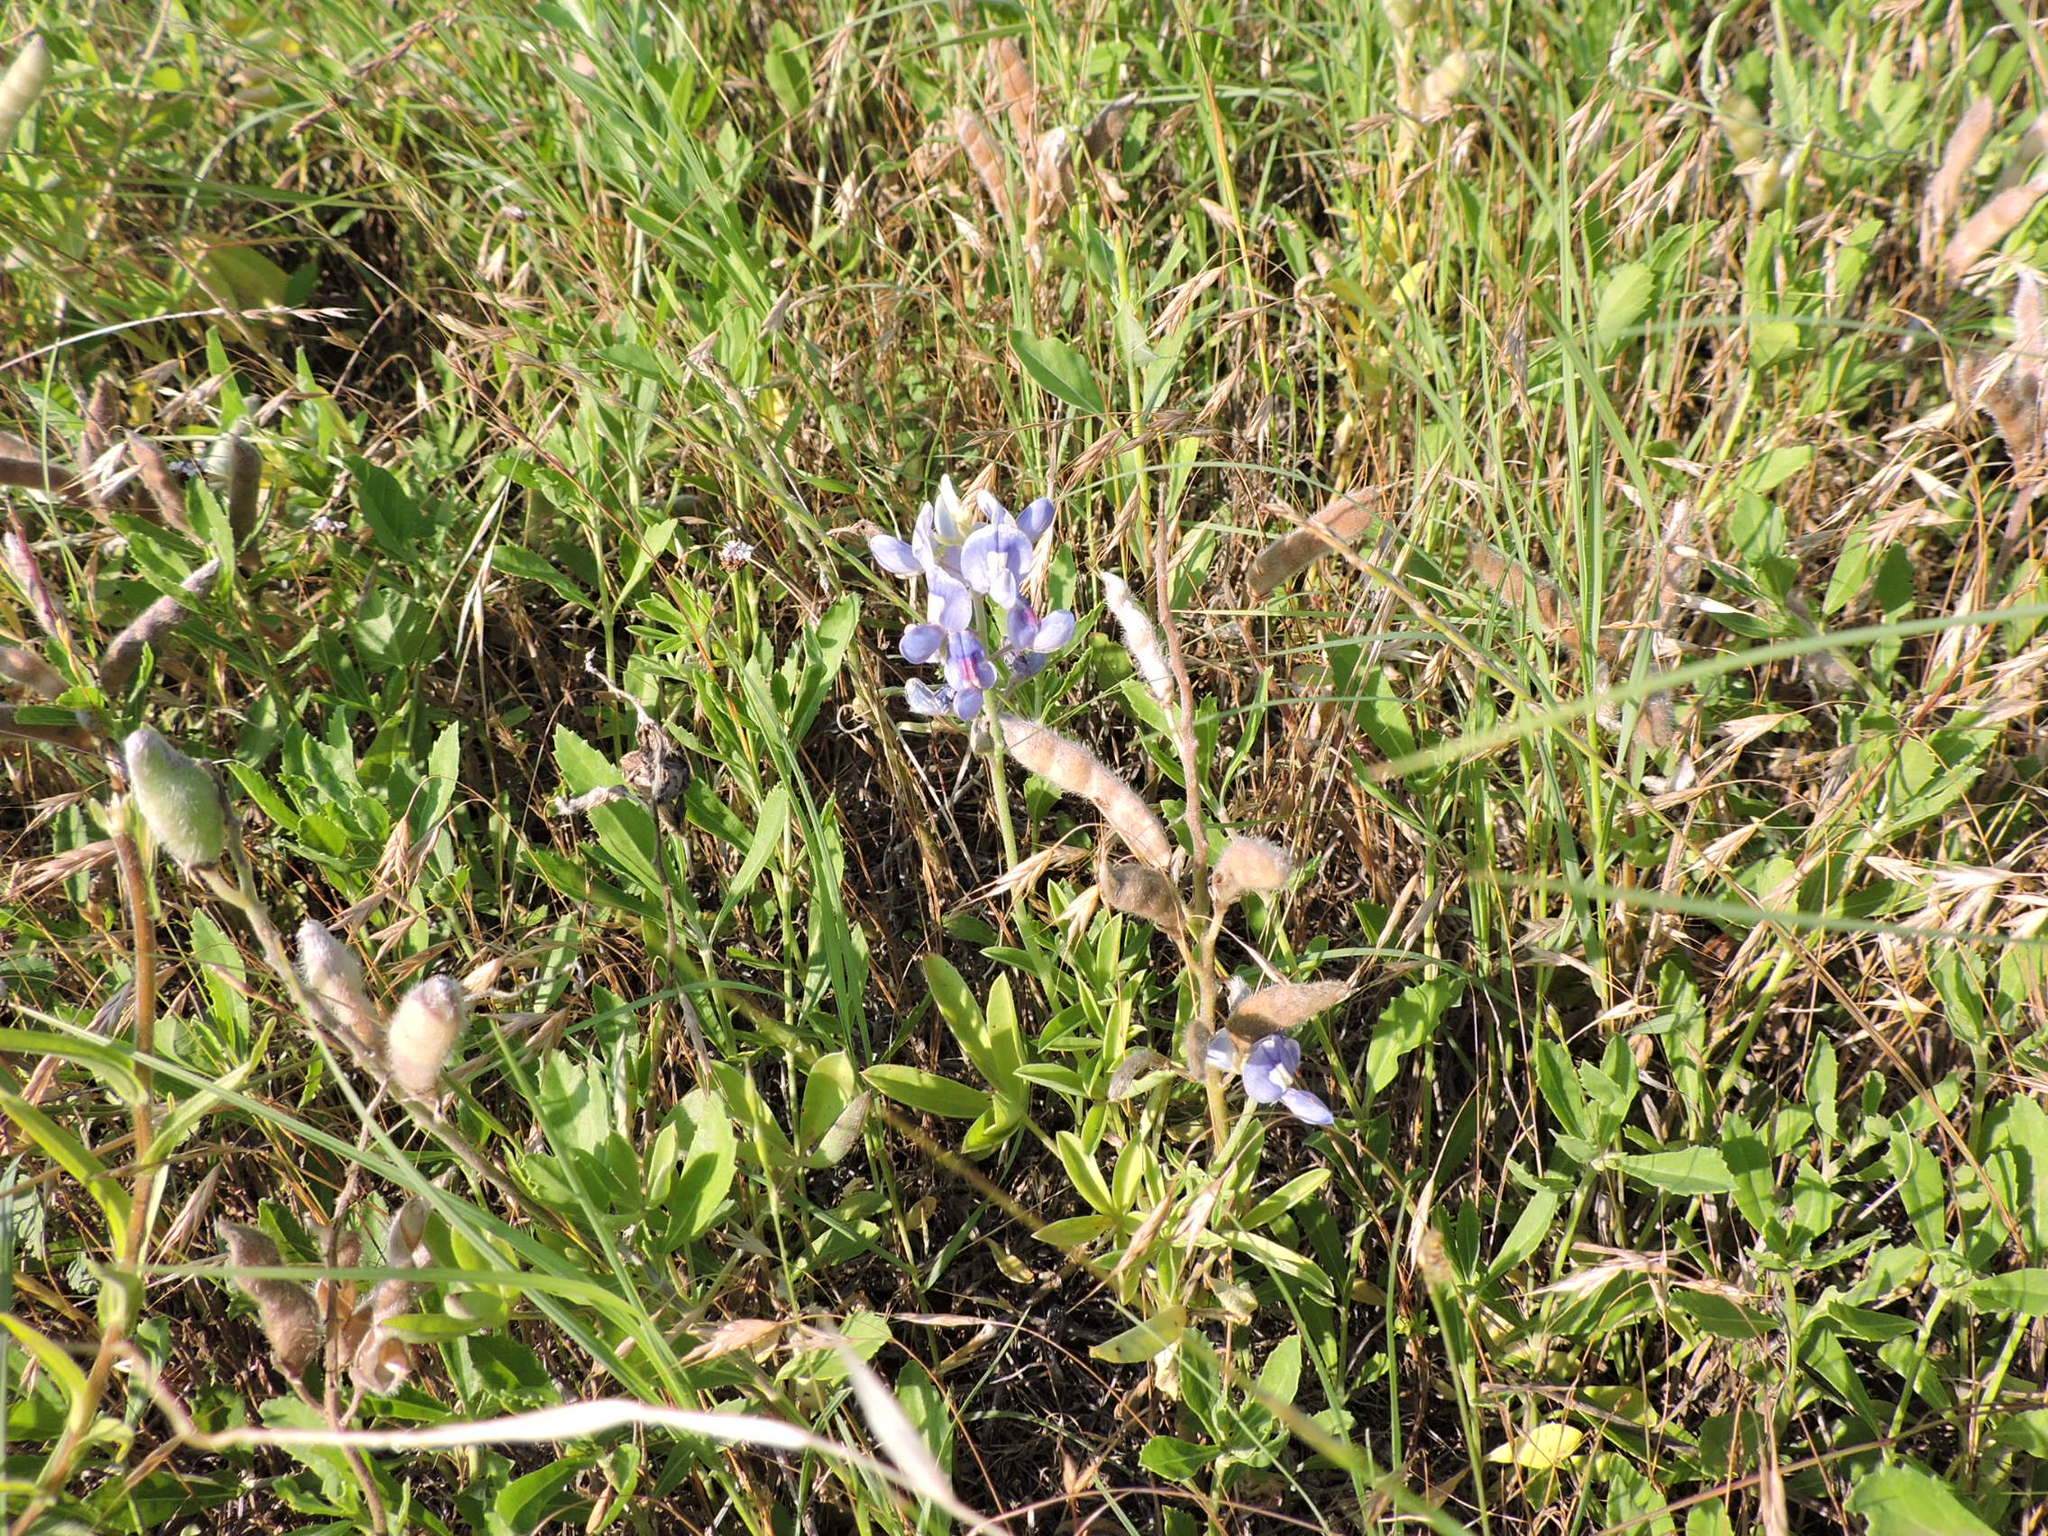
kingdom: Plantae
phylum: Tracheophyta
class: Magnoliopsida
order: Fabales
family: Fabaceae
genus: Lupinus
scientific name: Lupinus texensis
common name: Texas bluebonnet
